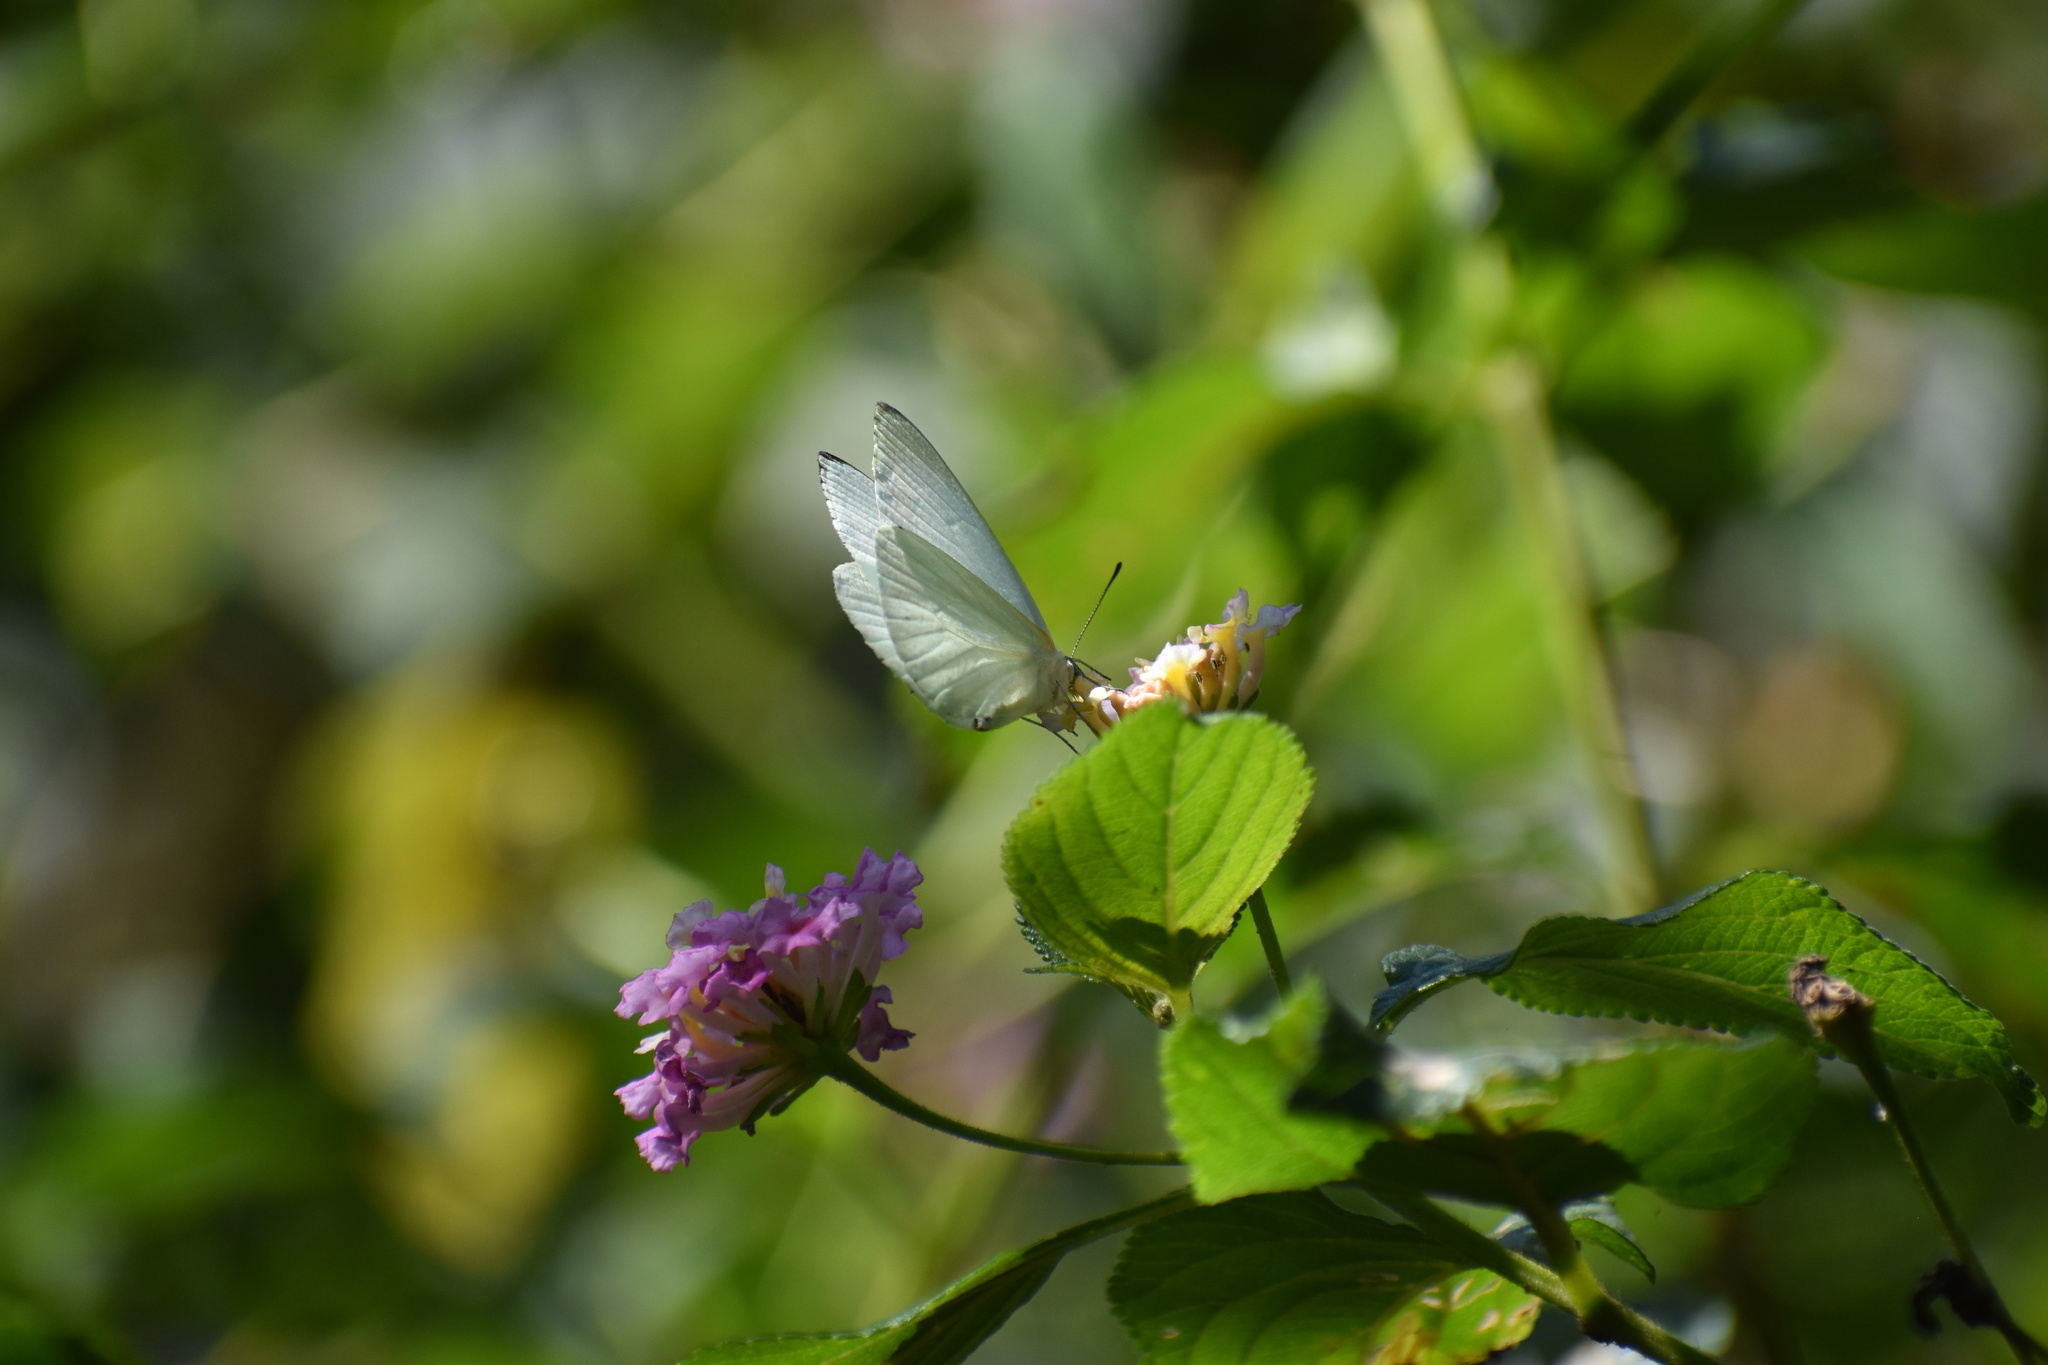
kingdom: Plantae
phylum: Tracheophyta
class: Magnoliopsida
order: Lamiales
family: Verbenaceae
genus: Lantana
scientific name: Lantana camara
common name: Lantana
